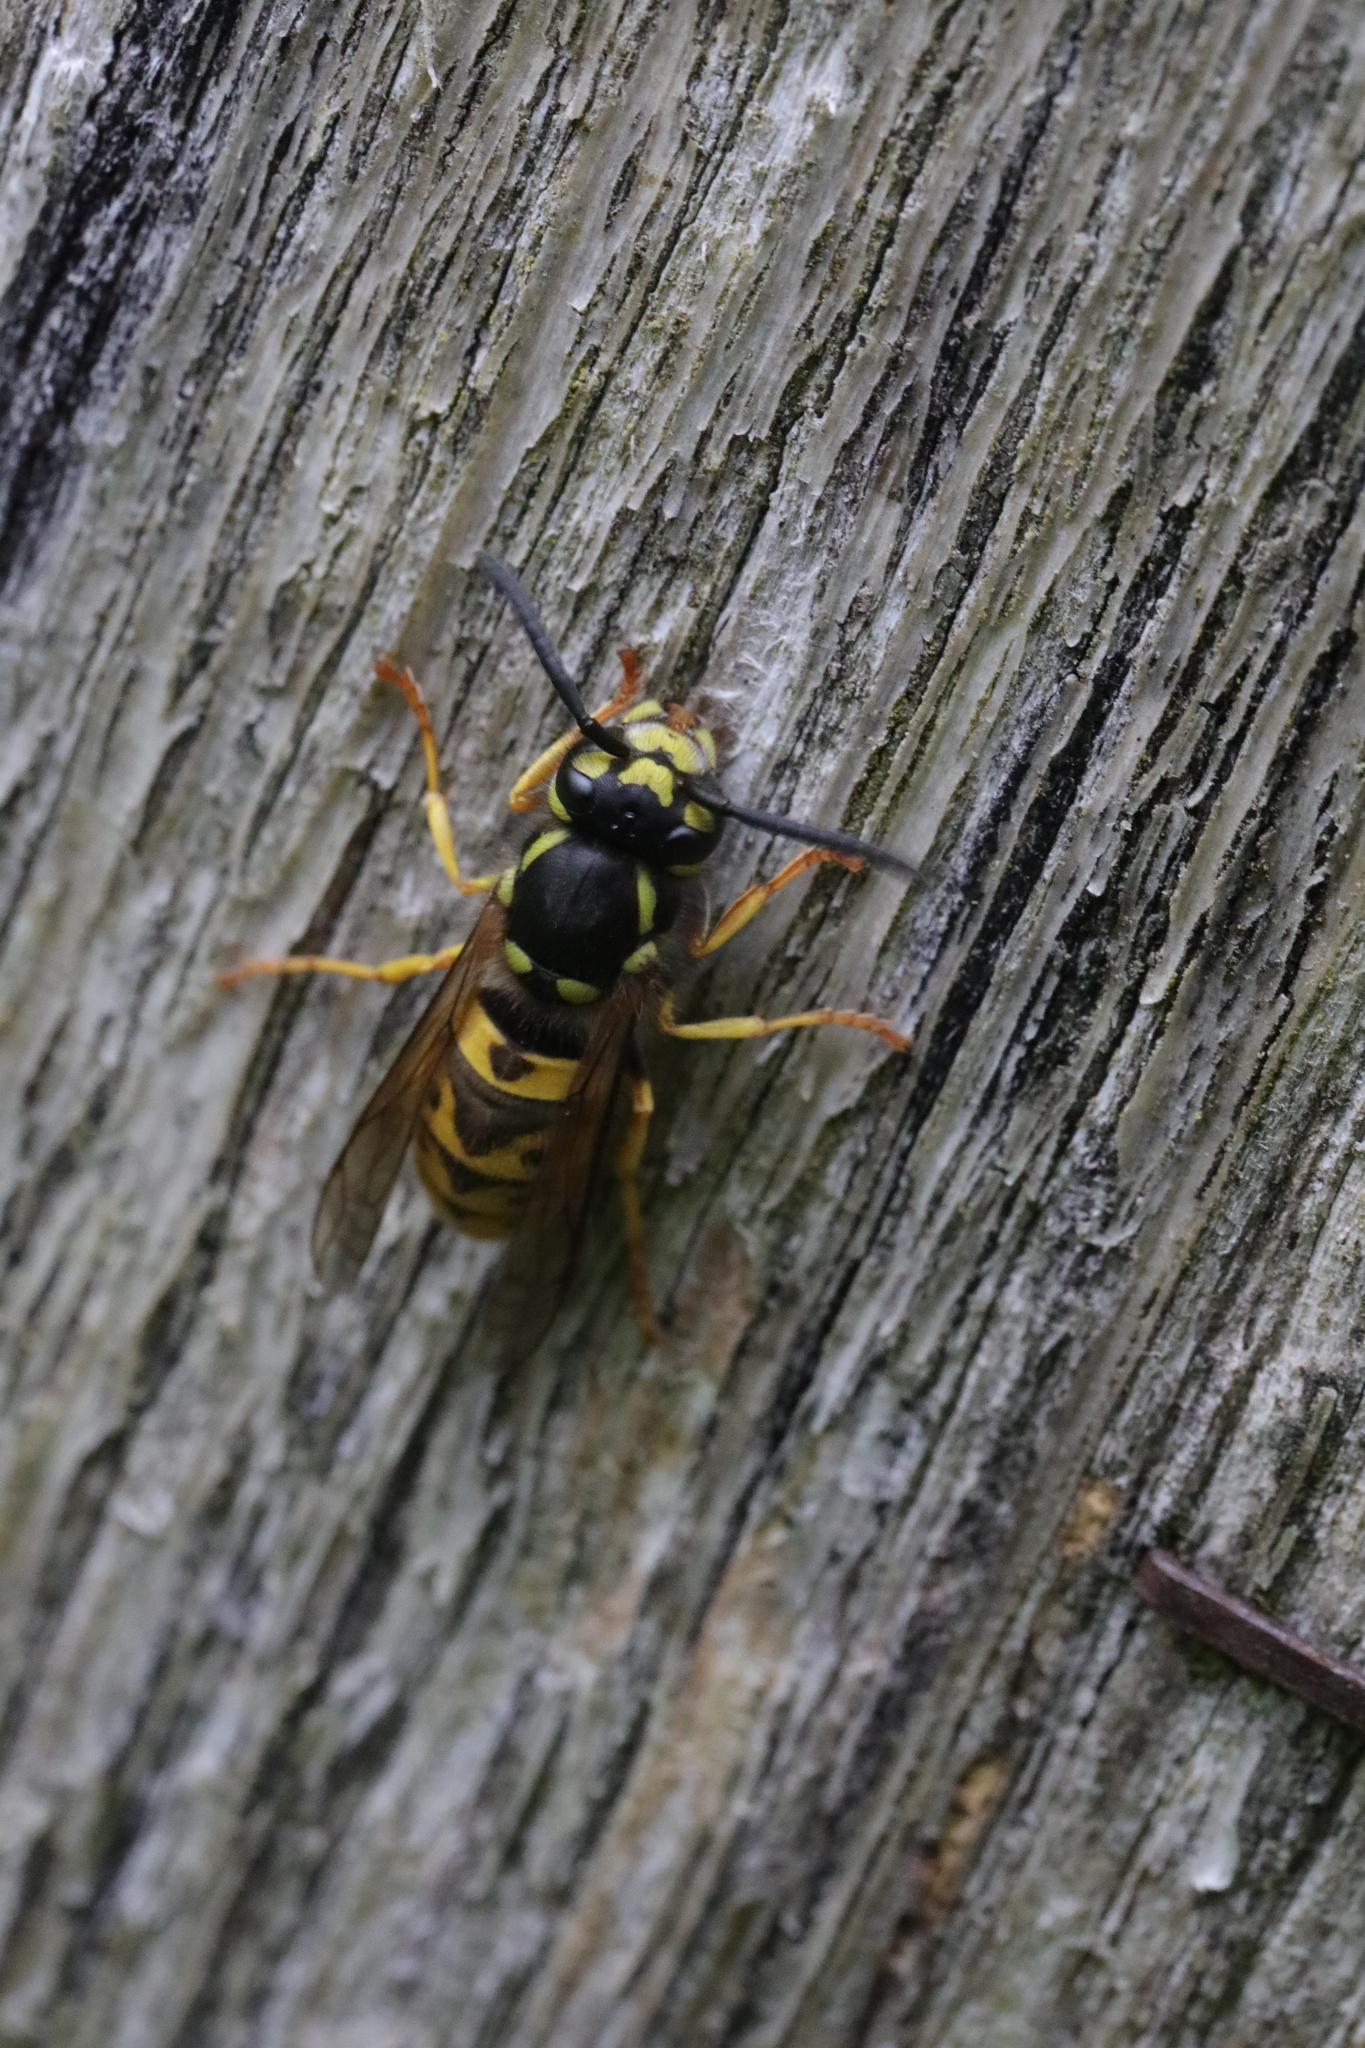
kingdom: Animalia
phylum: Arthropoda
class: Insecta
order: Hymenoptera
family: Vespidae
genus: Vespula
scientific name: Vespula germanica
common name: German wasp
